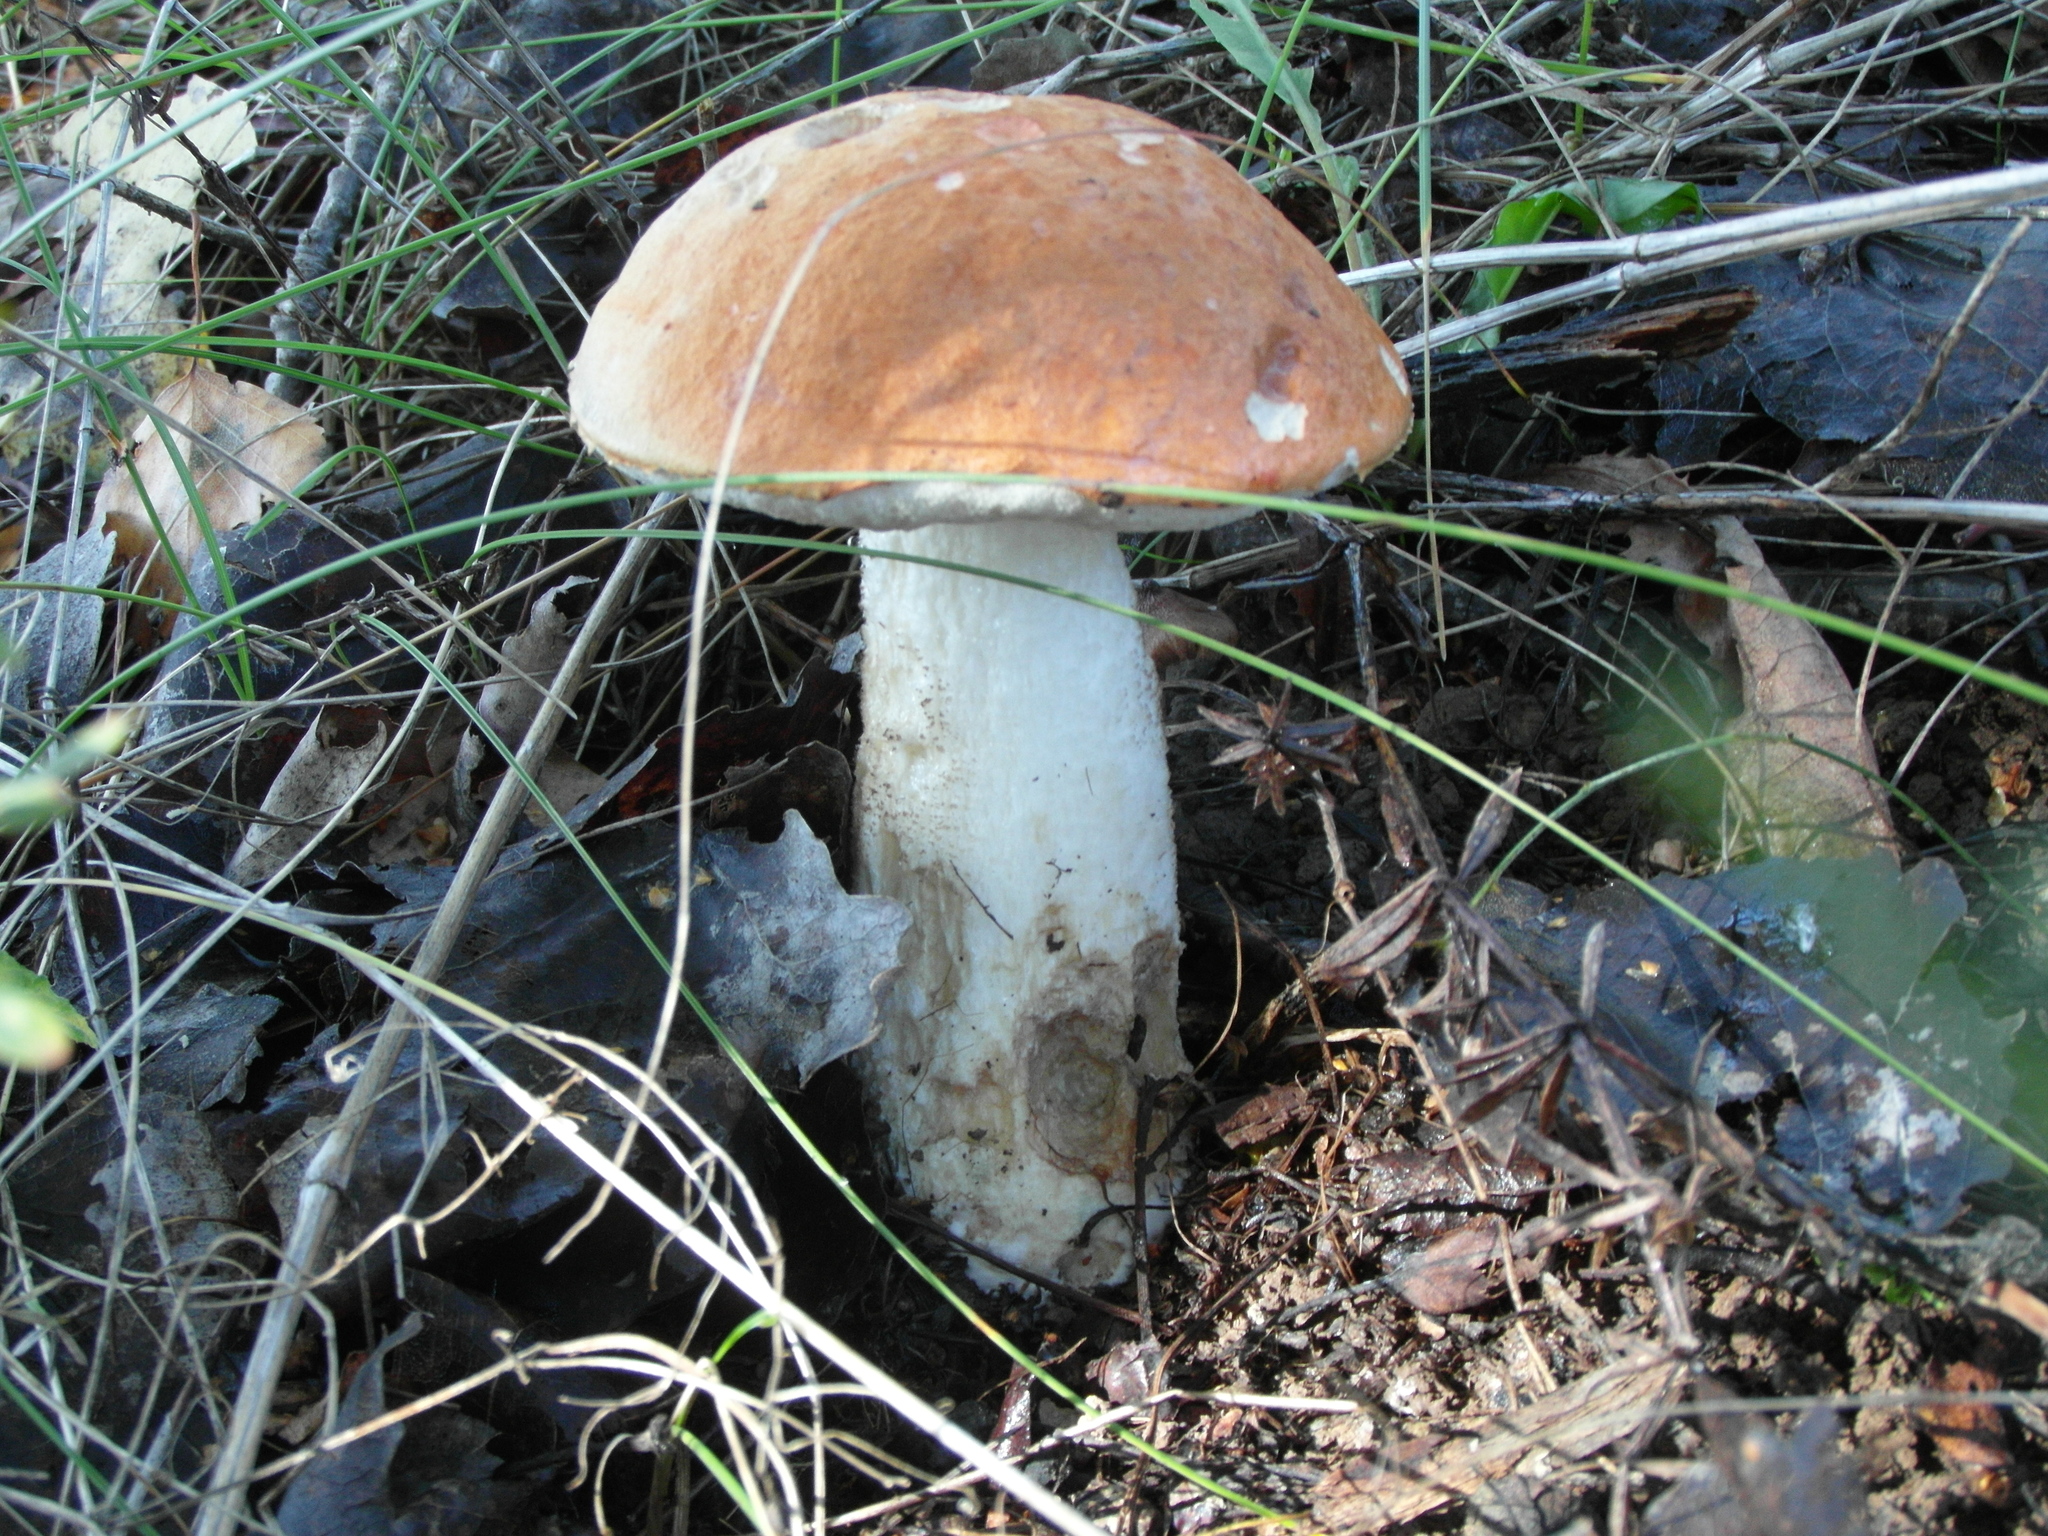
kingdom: Fungi
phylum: Basidiomycota
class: Agaricomycetes
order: Boletales
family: Boletaceae
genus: Leccinum
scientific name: Leccinum albostipitatum
